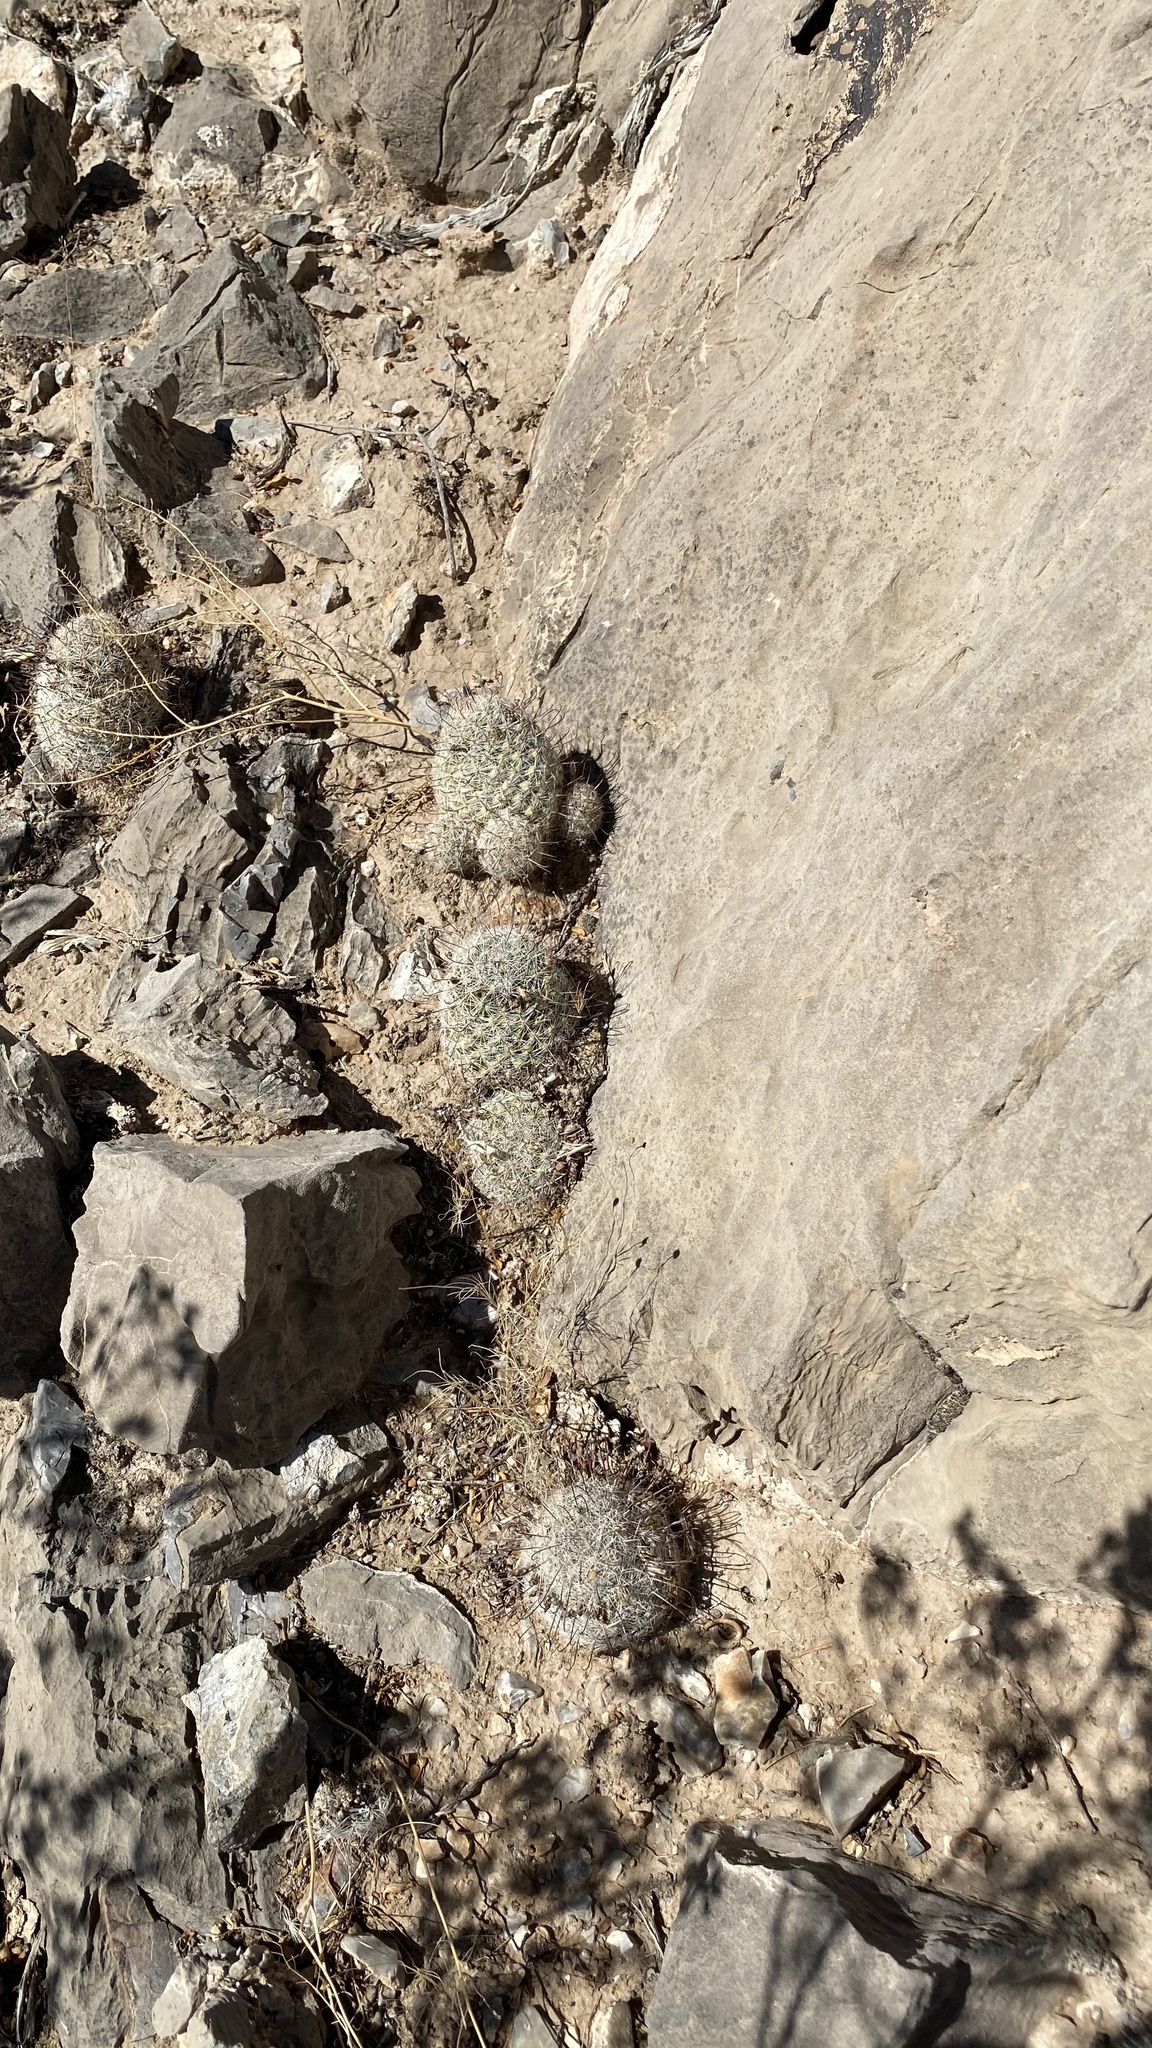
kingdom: Plantae
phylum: Tracheophyta
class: Magnoliopsida
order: Caryophyllales
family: Cactaceae
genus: Cochemiea
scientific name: Cochemiea grahamii
